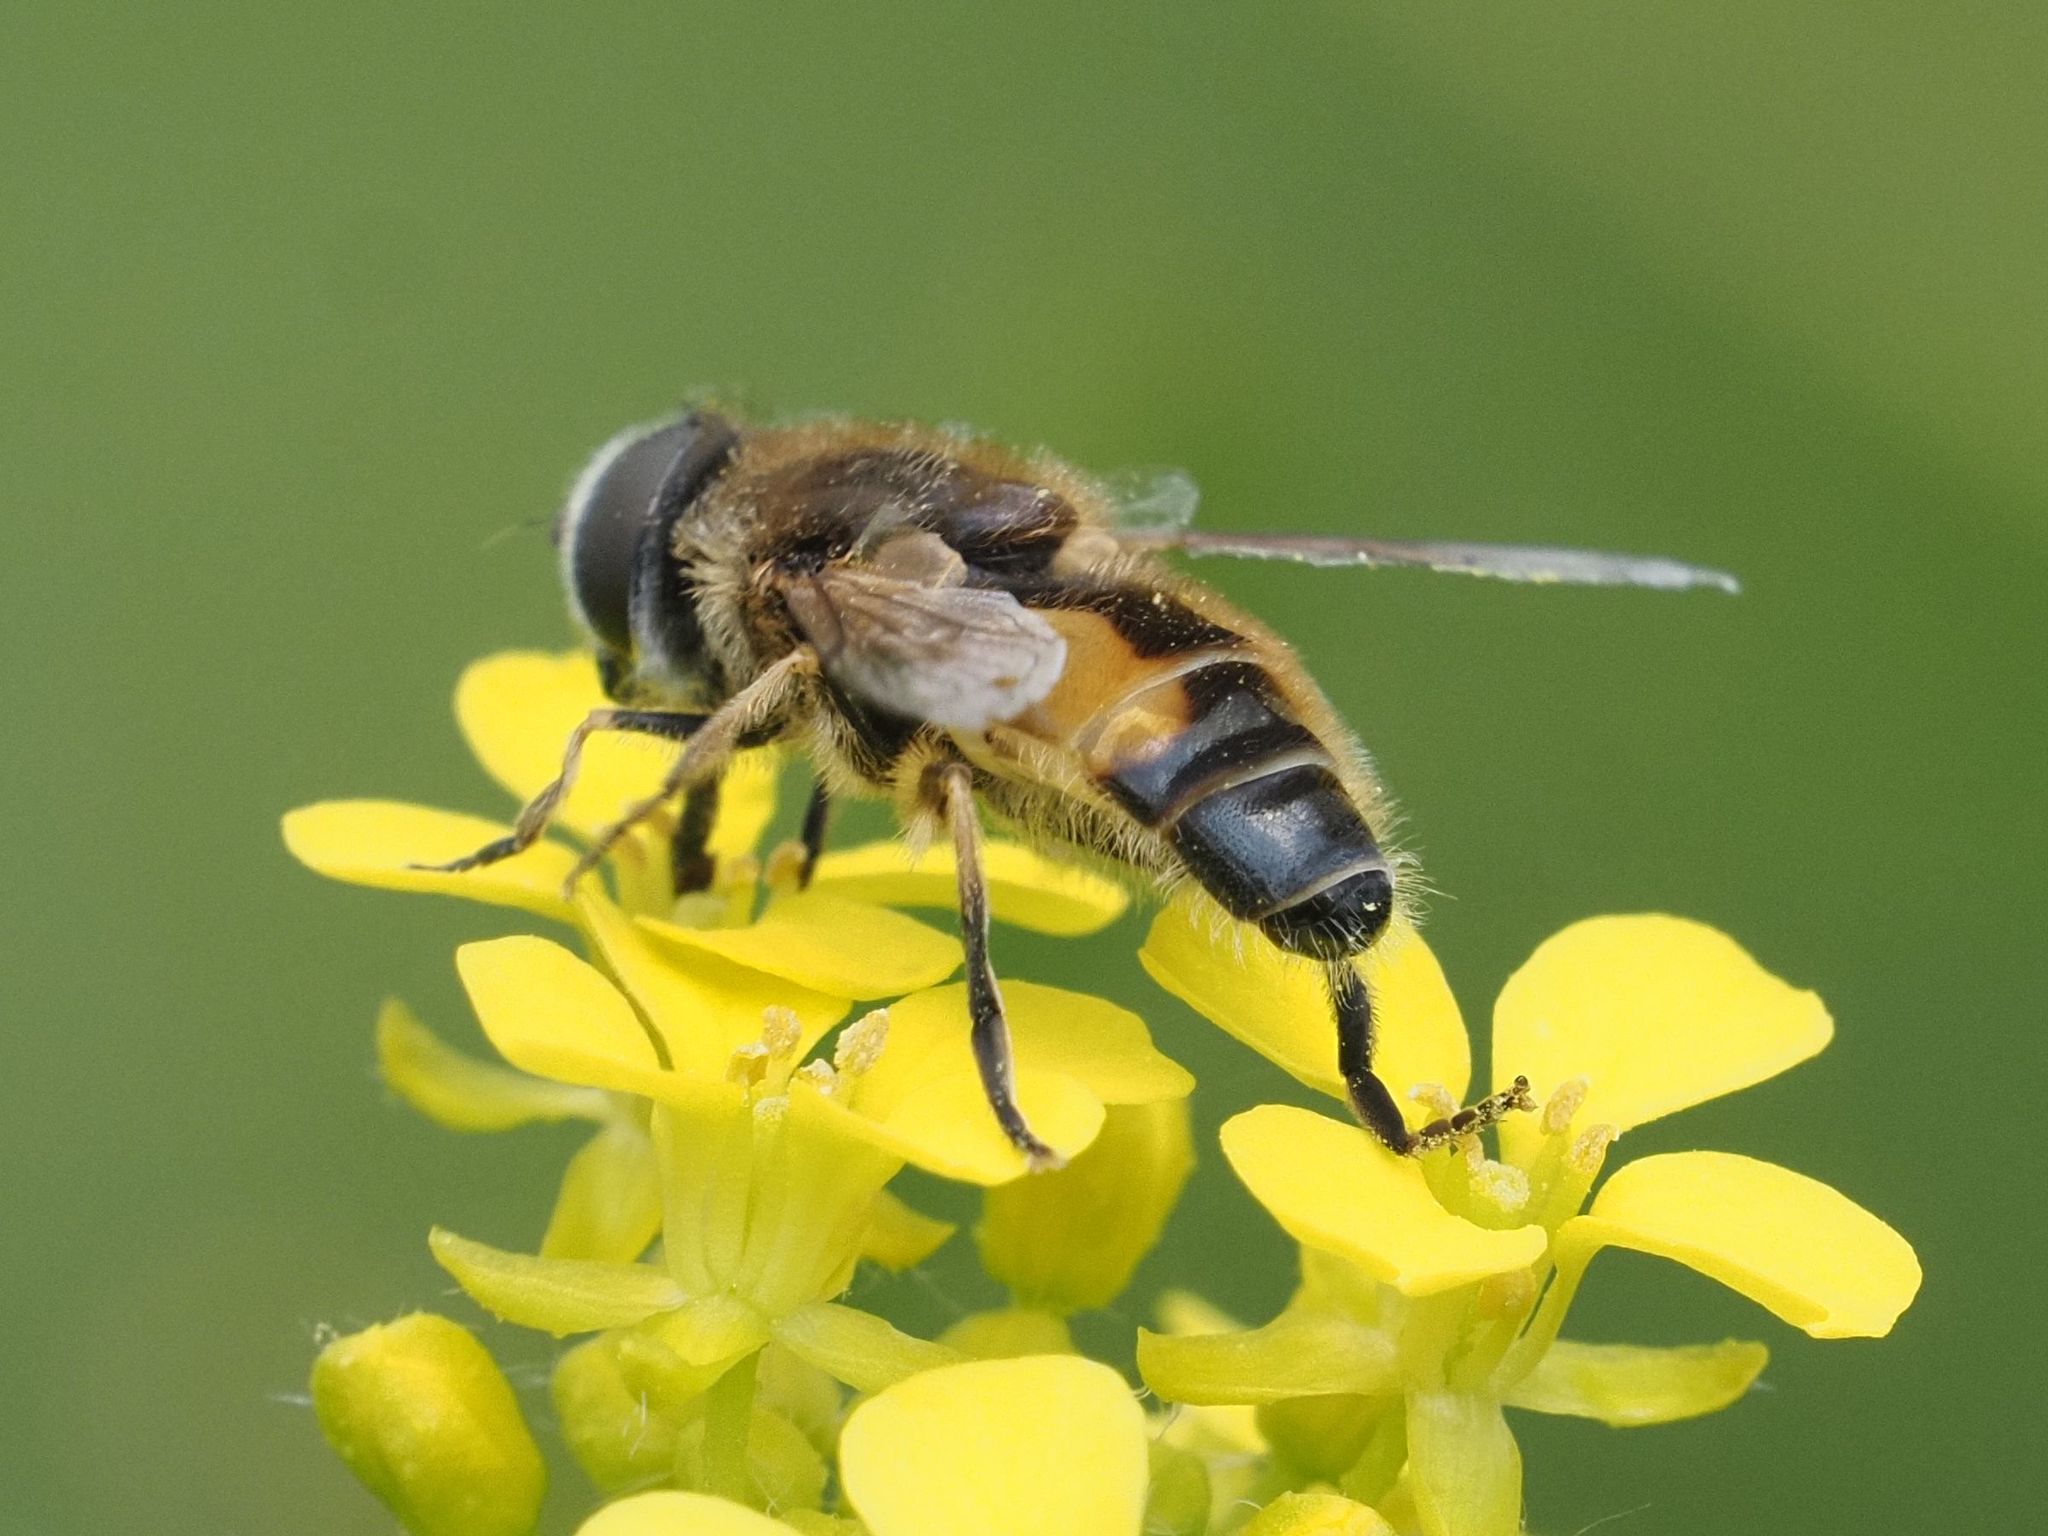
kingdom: Animalia
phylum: Arthropoda
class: Insecta
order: Diptera
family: Syrphidae
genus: Eristalis
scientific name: Eristalis arbustorum
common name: Hover fly
